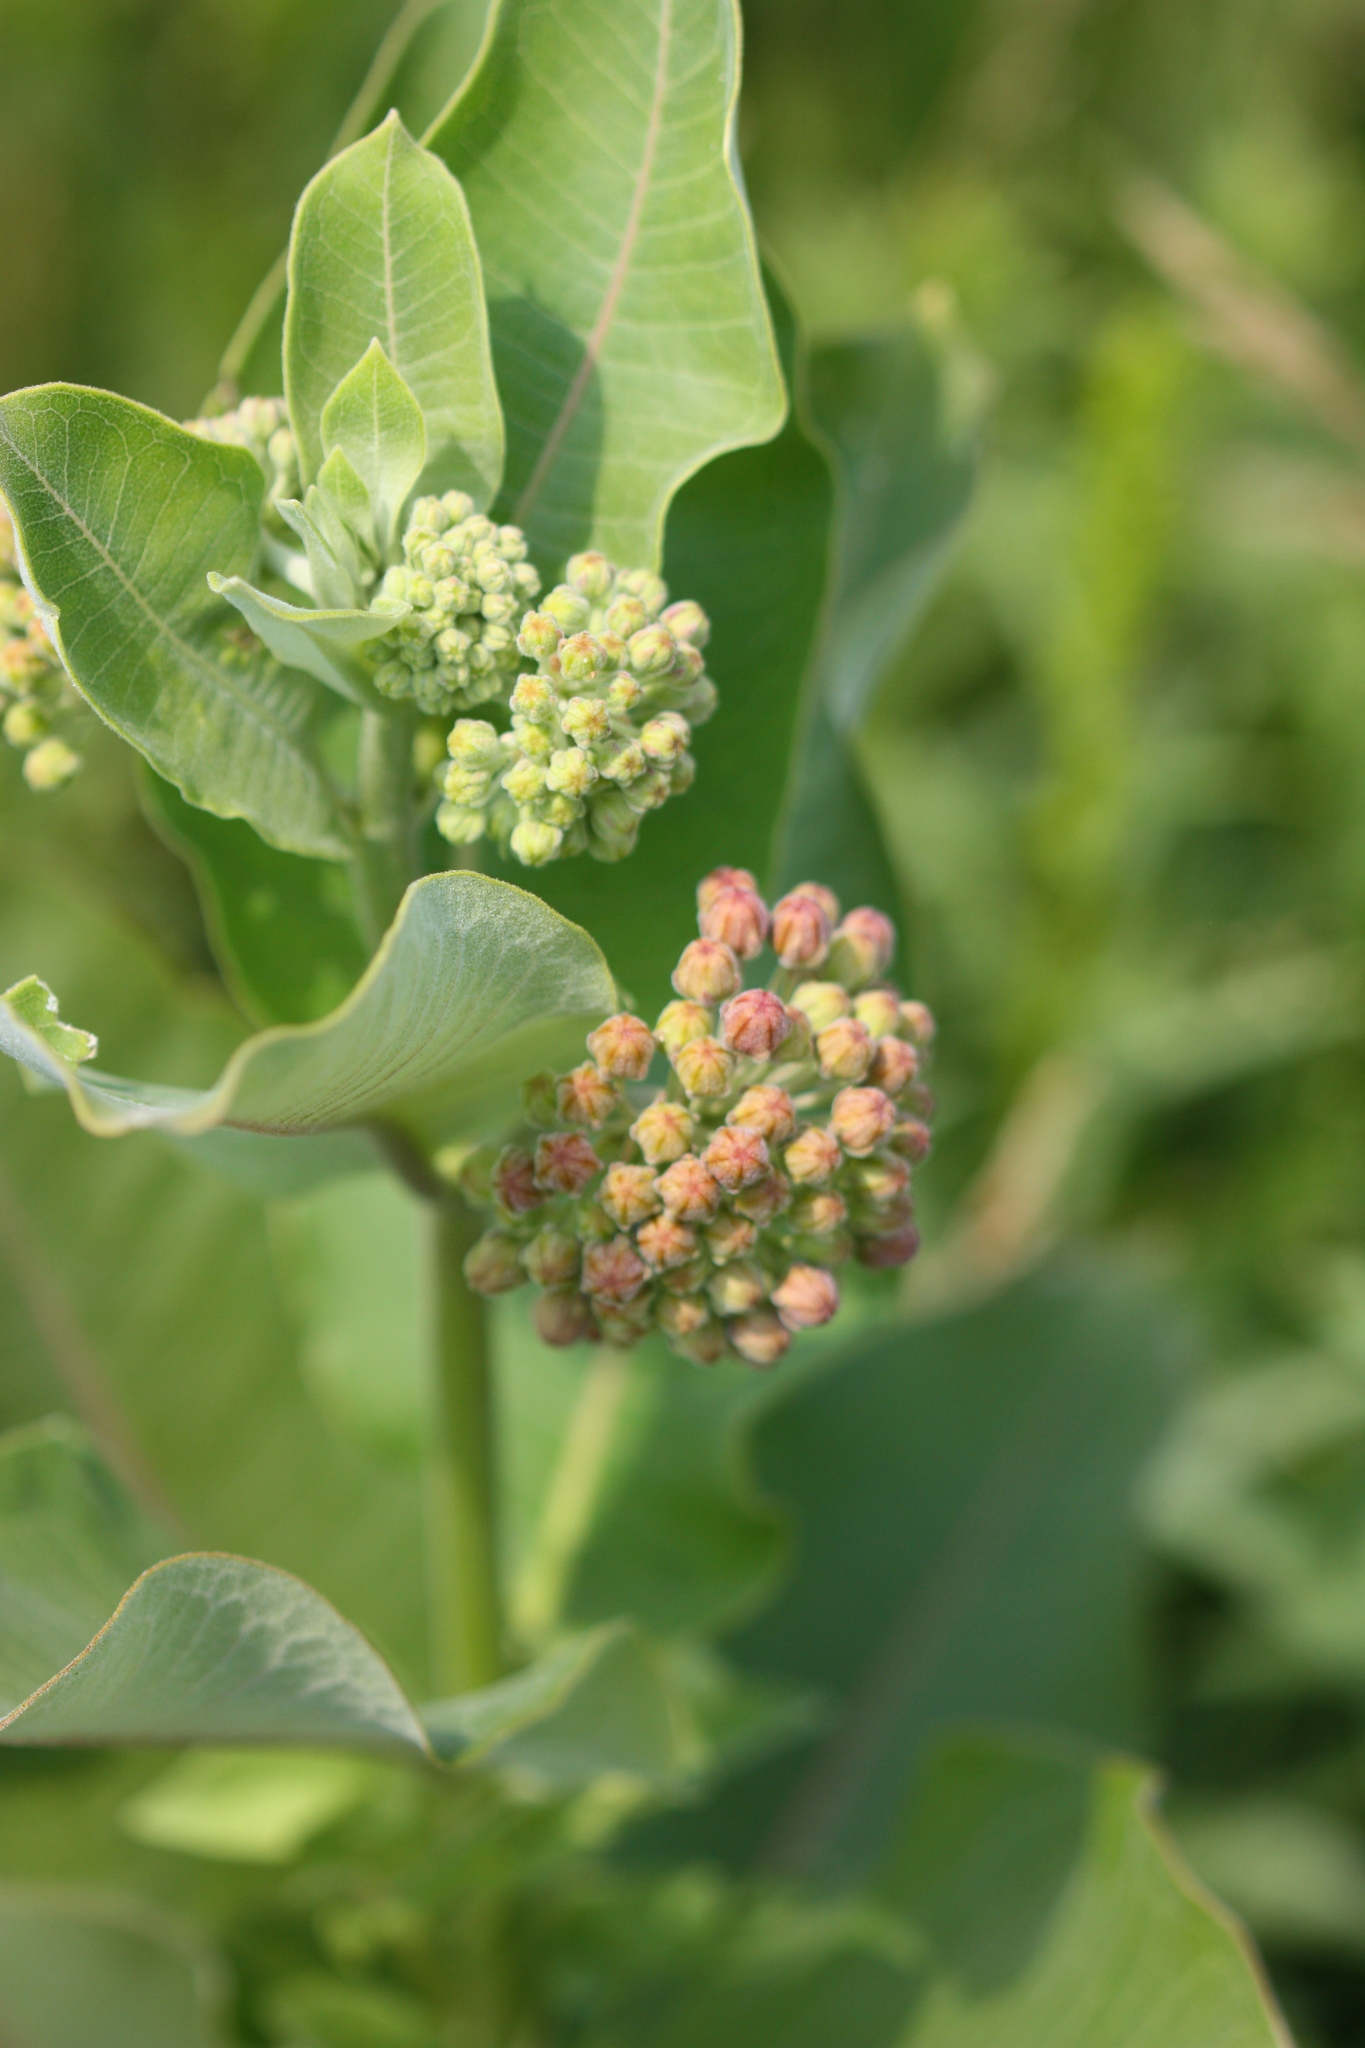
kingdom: Plantae
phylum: Tracheophyta
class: Magnoliopsida
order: Gentianales
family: Apocynaceae
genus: Asclepias
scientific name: Asclepias syriaca
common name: Common milkweed
